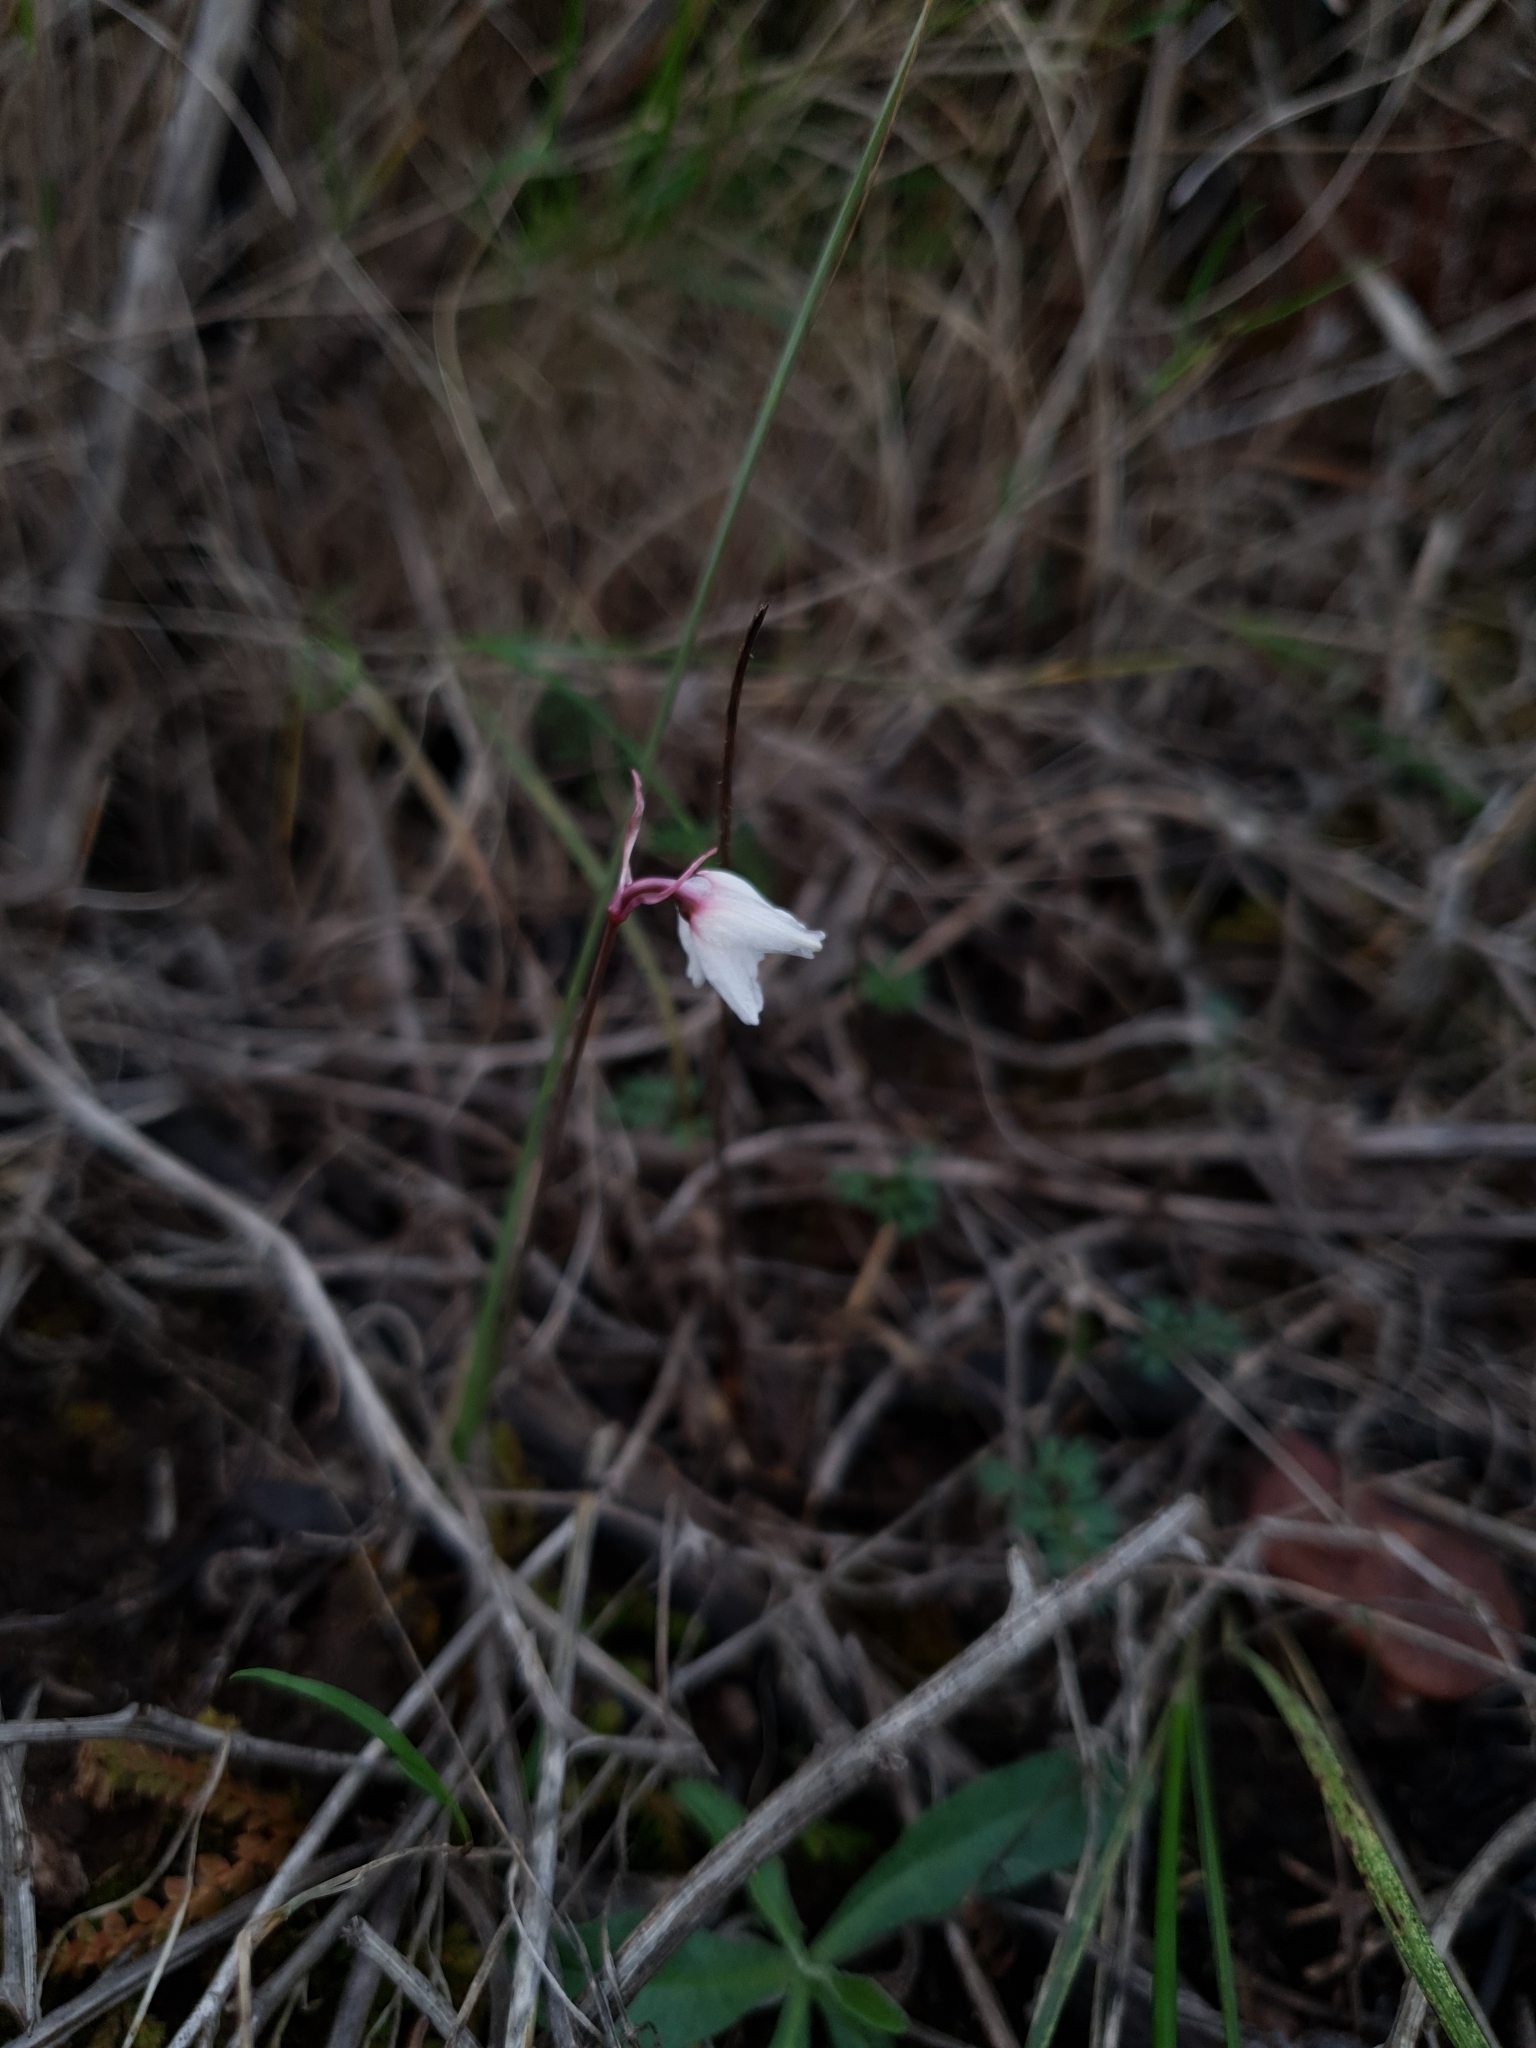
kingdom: Plantae
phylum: Tracheophyta
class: Liliopsida
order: Asparagales
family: Amaryllidaceae
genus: Acis
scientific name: Acis autumnalis
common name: Autumn snowflake
